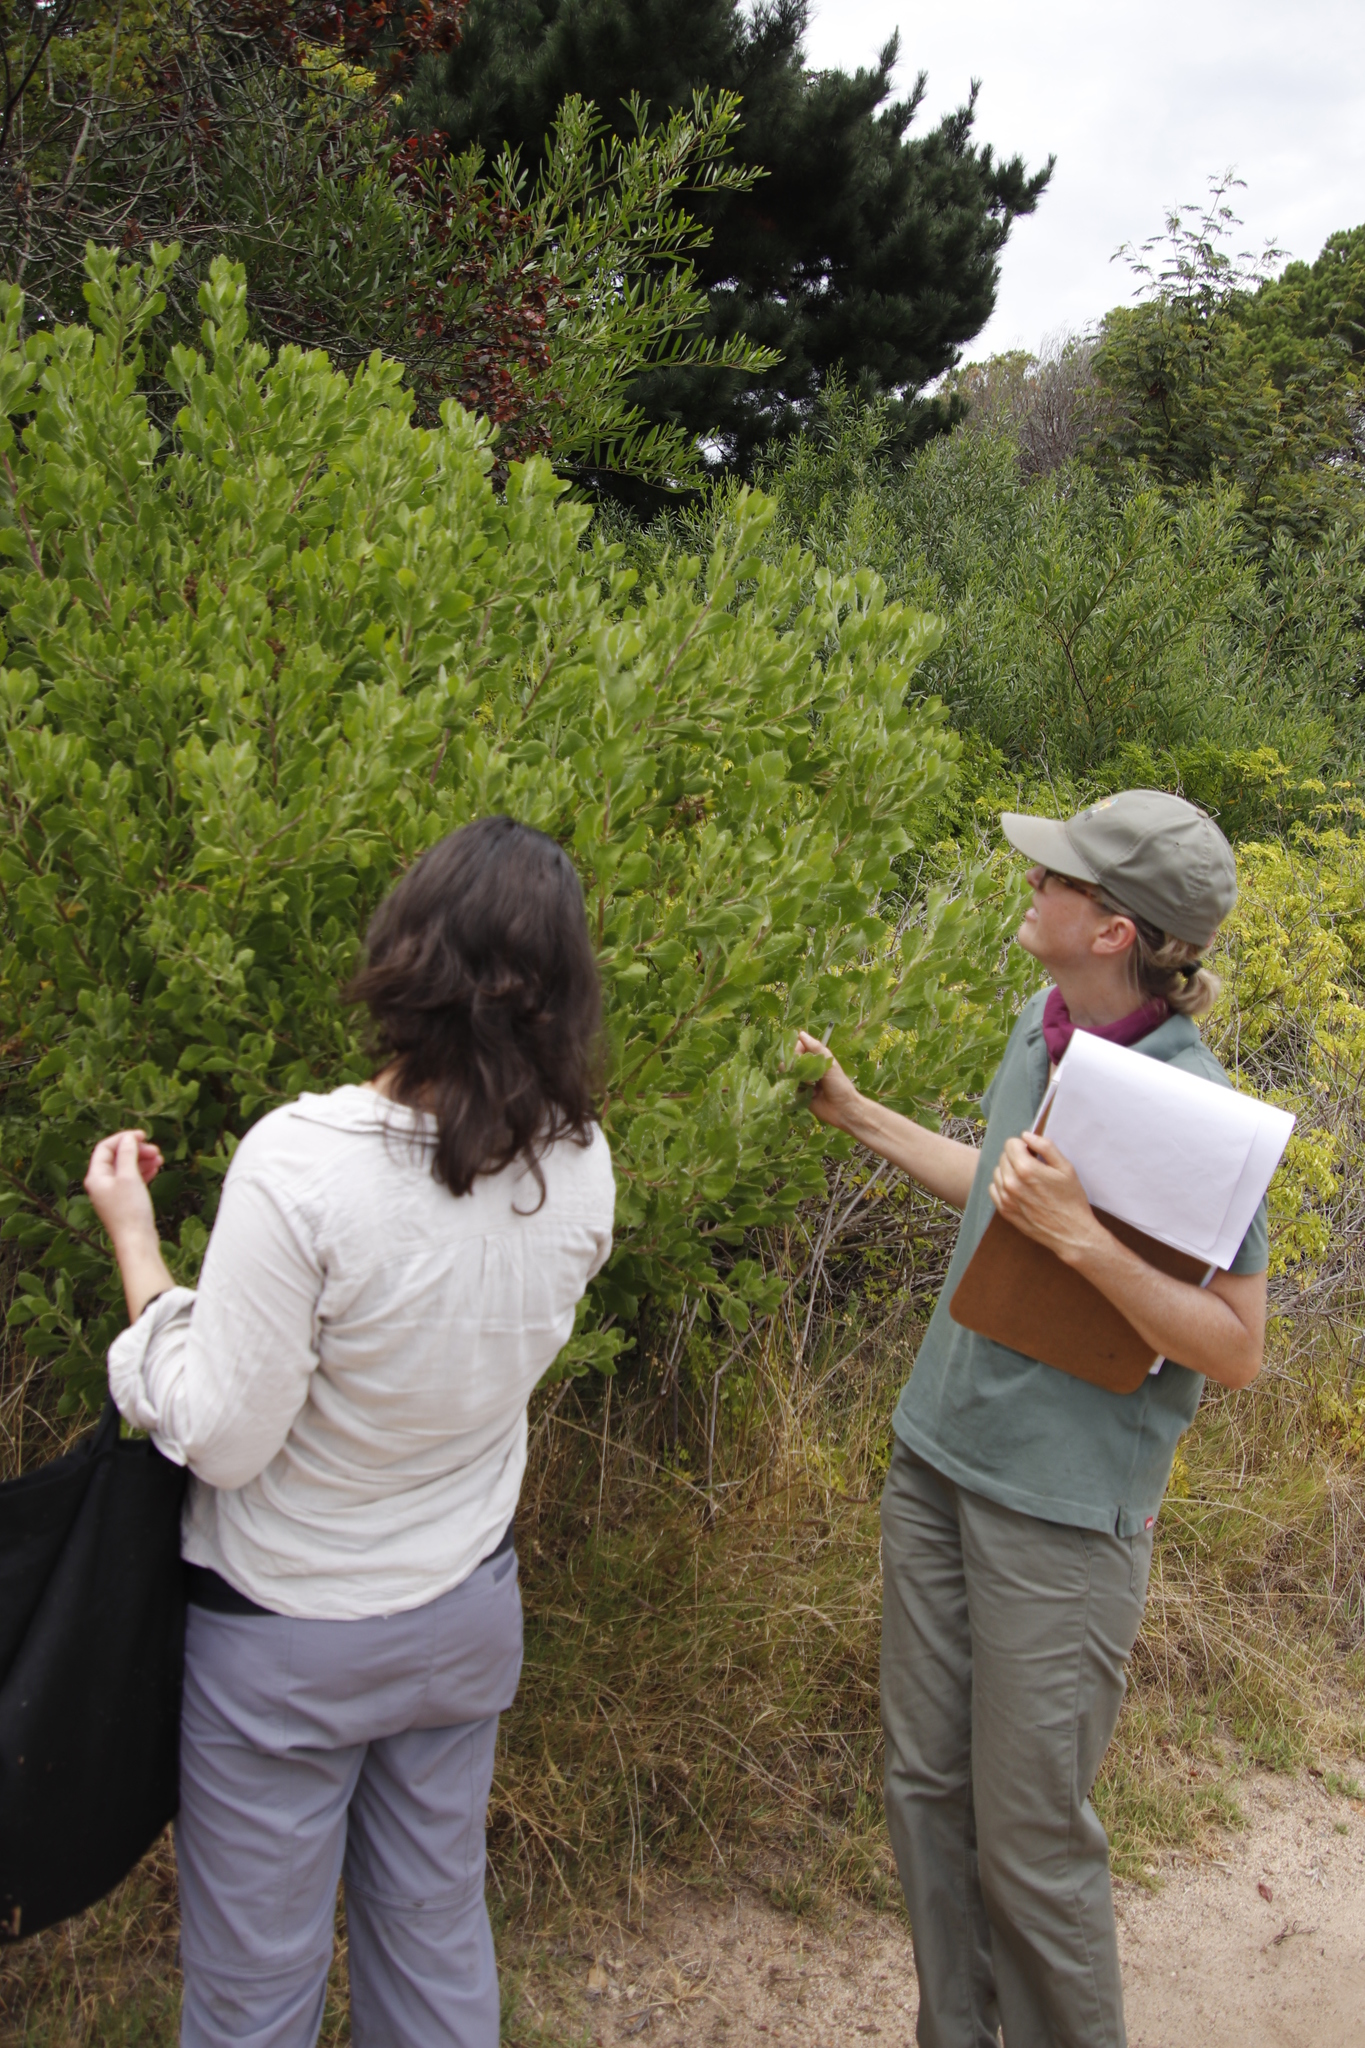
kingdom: Plantae
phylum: Tracheophyta
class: Magnoliopsida
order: Asterales
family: Asteraceae
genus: Osteospermum
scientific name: Osteospermum moniliferum
